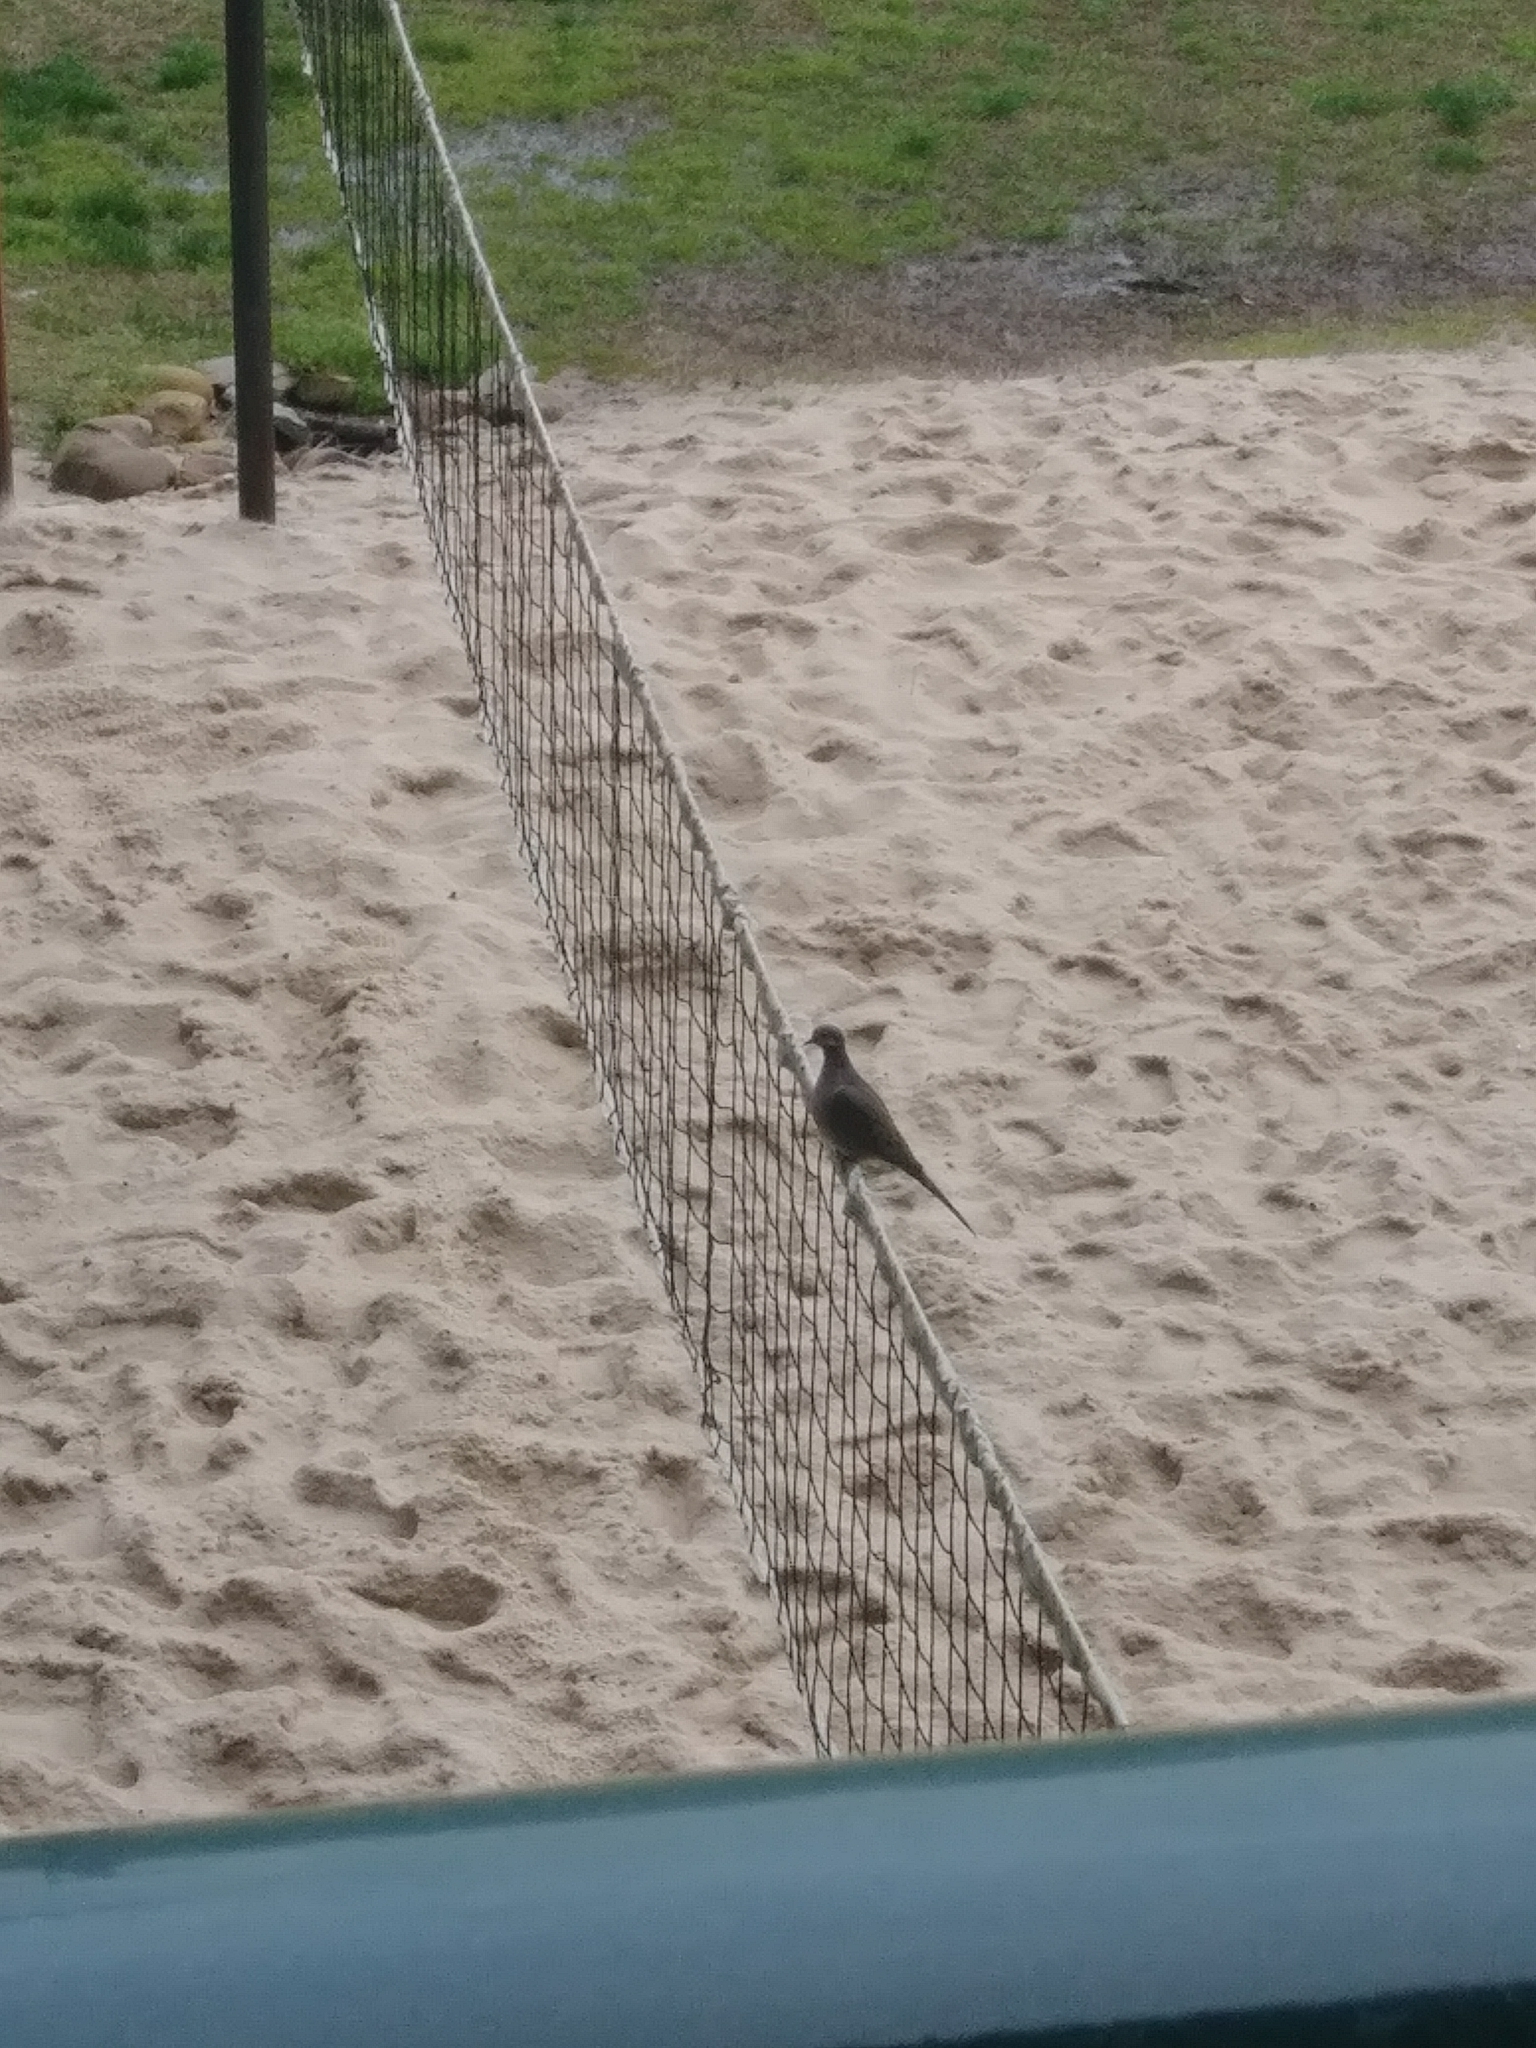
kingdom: Animalia
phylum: Chordata
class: Aves
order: Columbiformes
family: Columbidae
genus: Zenaida
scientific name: Zenaida macroura
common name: Mourning dove
